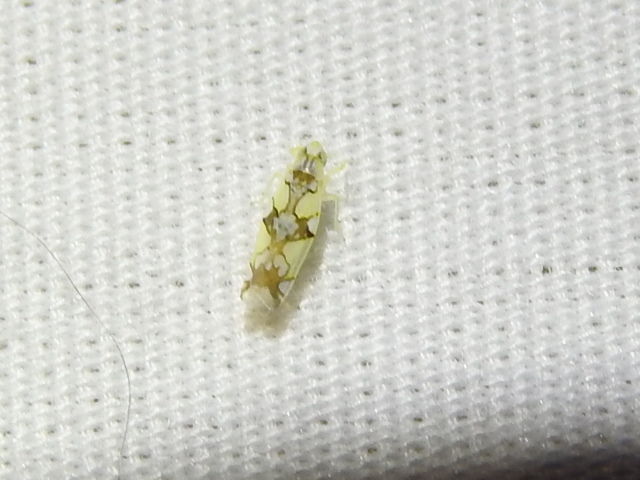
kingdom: Animalia
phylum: Arthropoda
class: Insecta
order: Hemiptera
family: Cicadellidae
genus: Protalebrella
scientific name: Protalebrella conica
